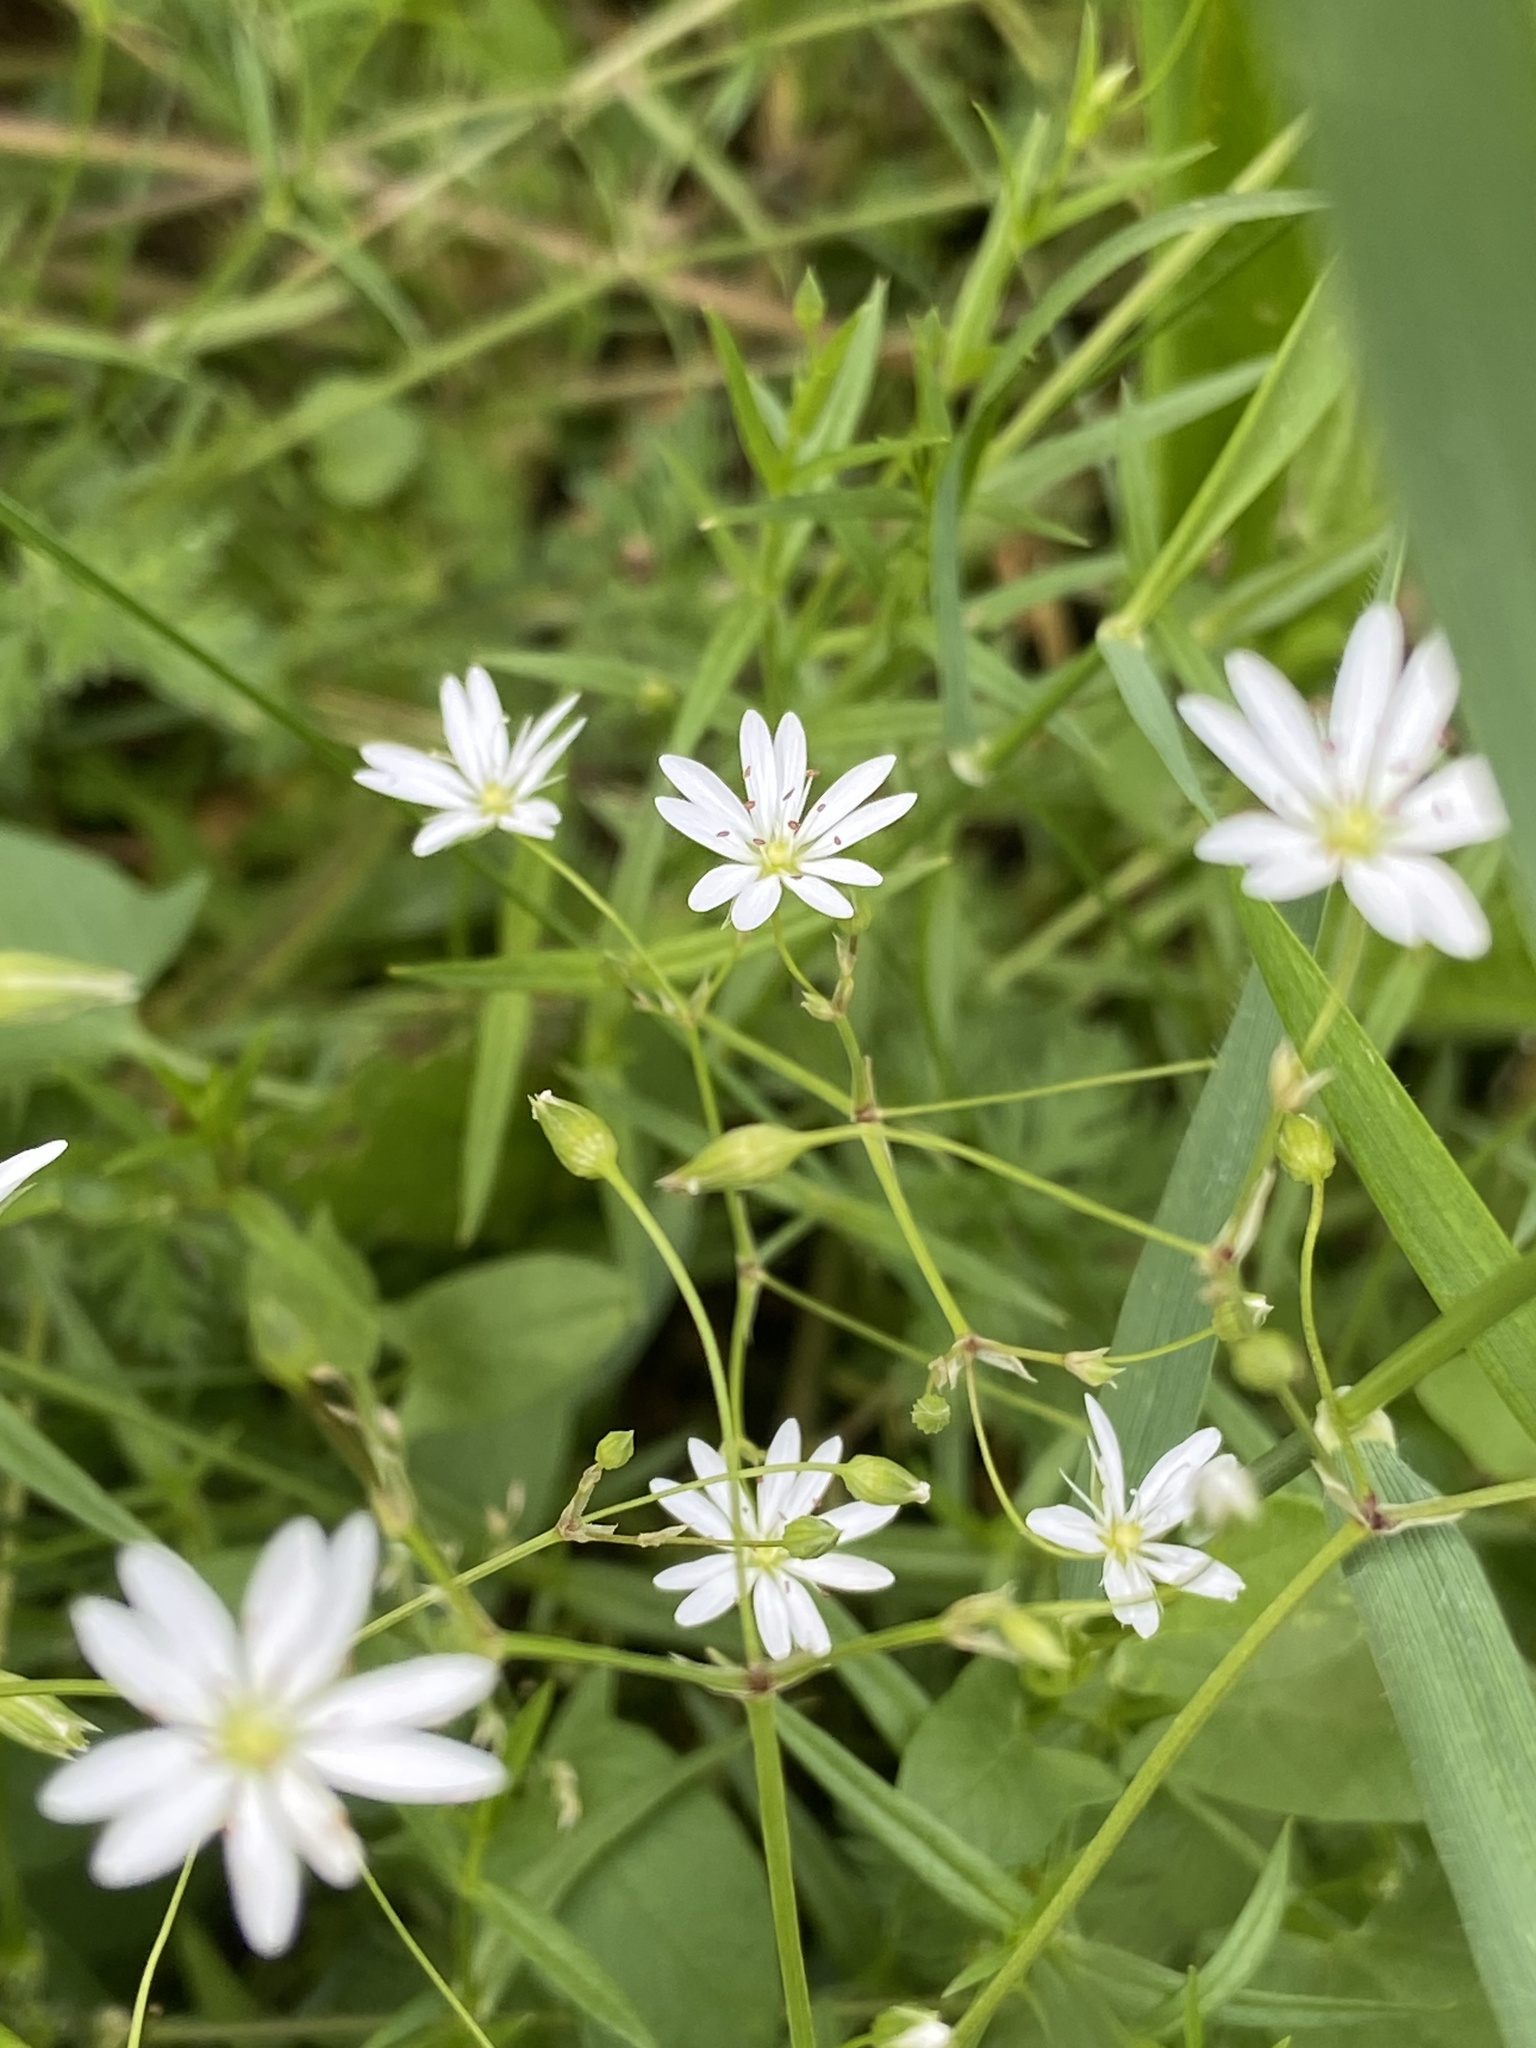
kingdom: Plantae
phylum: Tracheophyta
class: Magnoliopsida
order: Caryophyllales
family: Caryophyllaceae
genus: Stellaria
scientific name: Stellaria graminea
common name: Grass-like starwort
